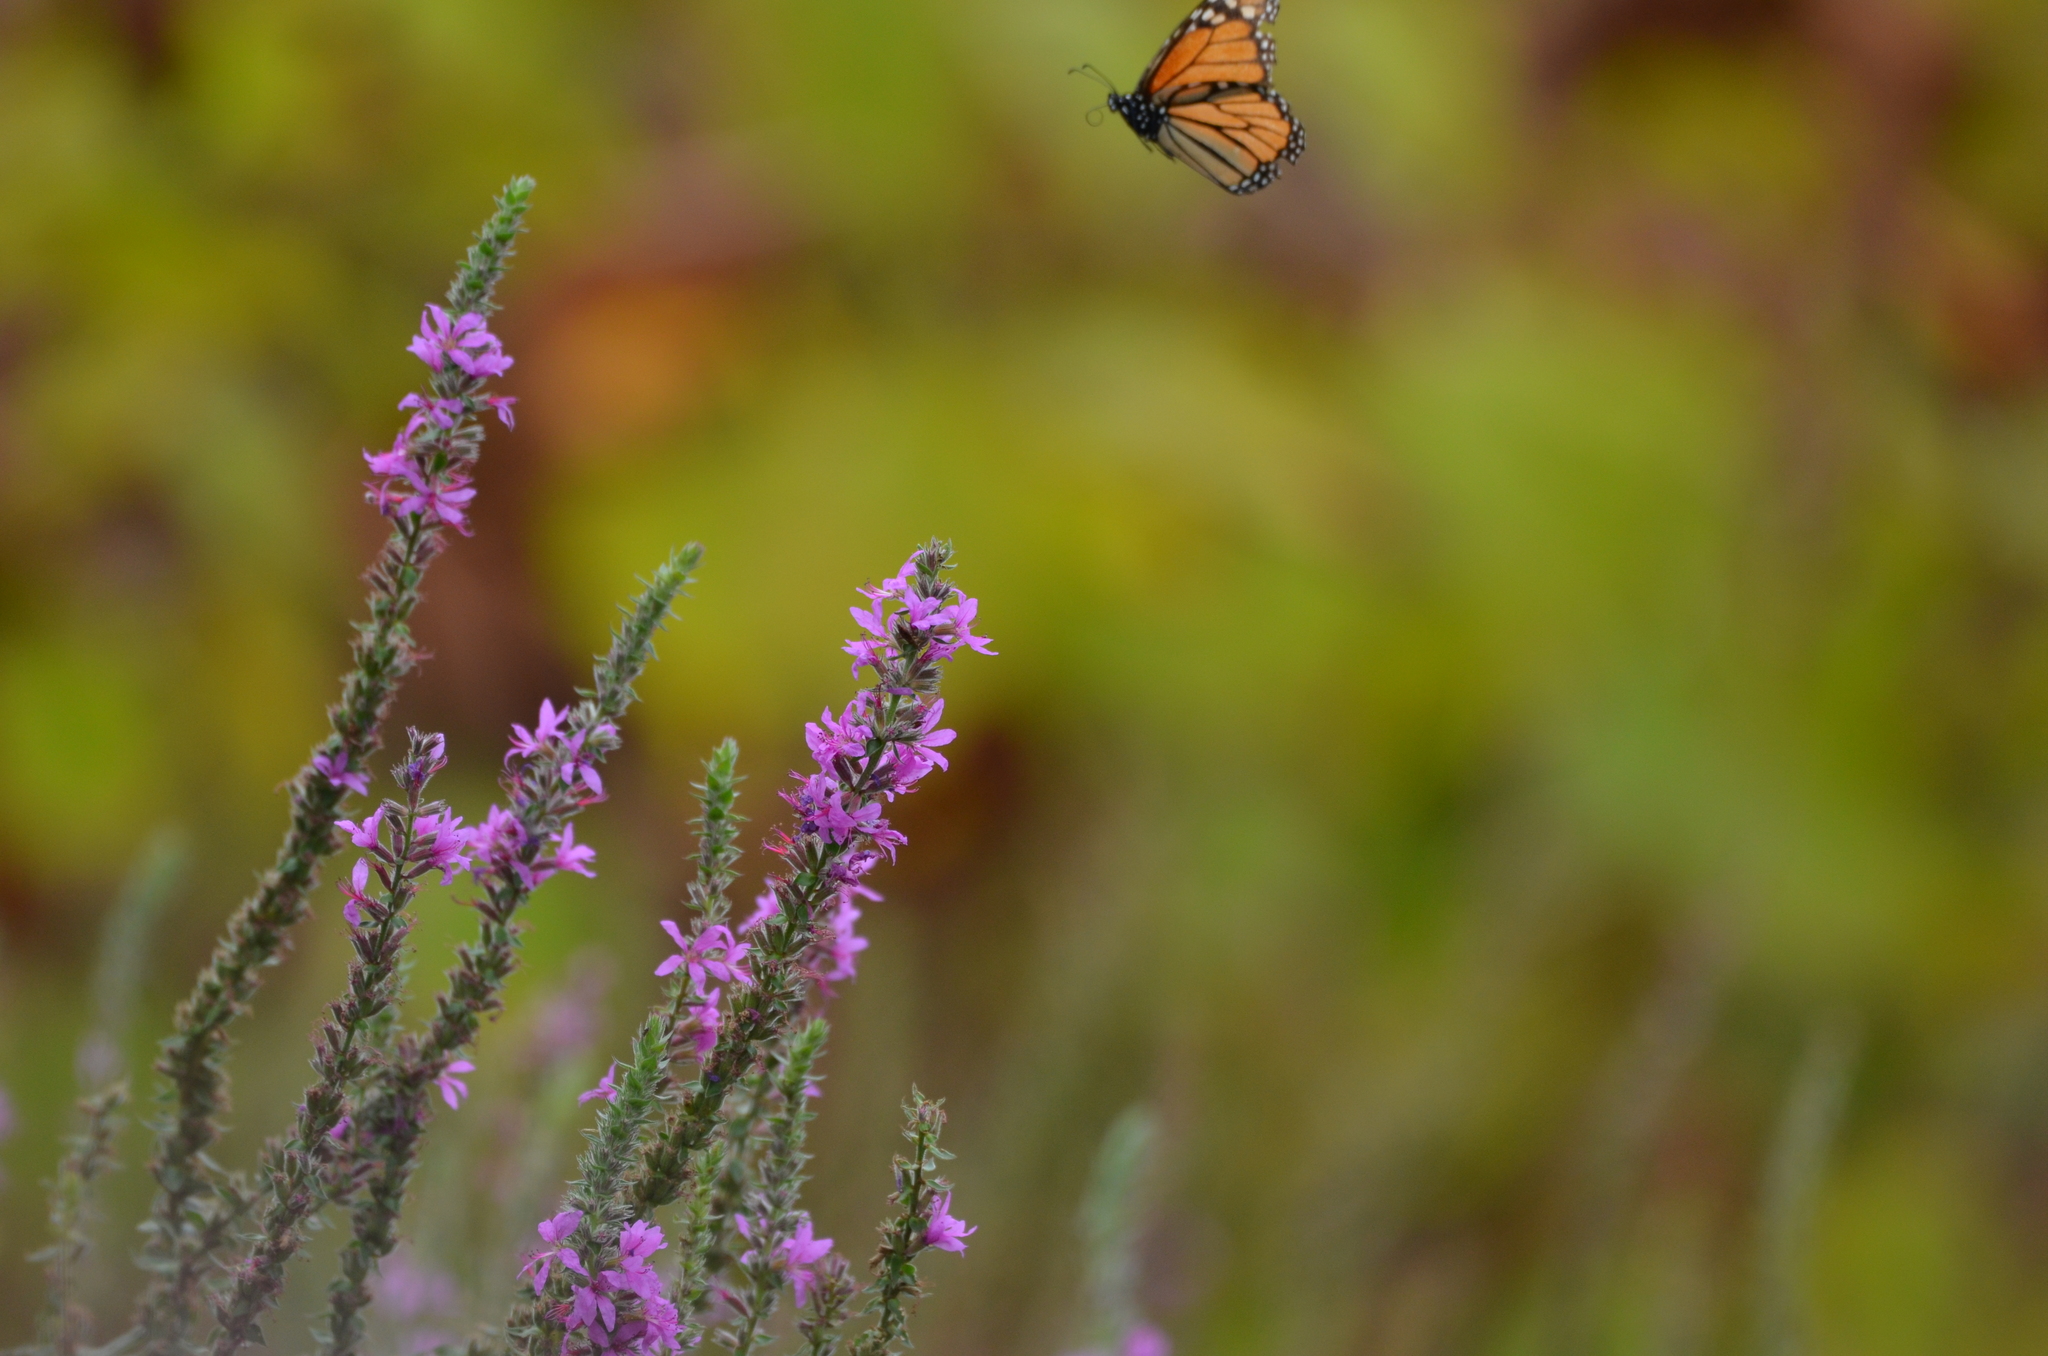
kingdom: Animalia
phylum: Arthropoda
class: Insecta
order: Lepidoptera
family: Nymphalidae
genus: Danaus
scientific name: Danaus plexippus
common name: Monarch
